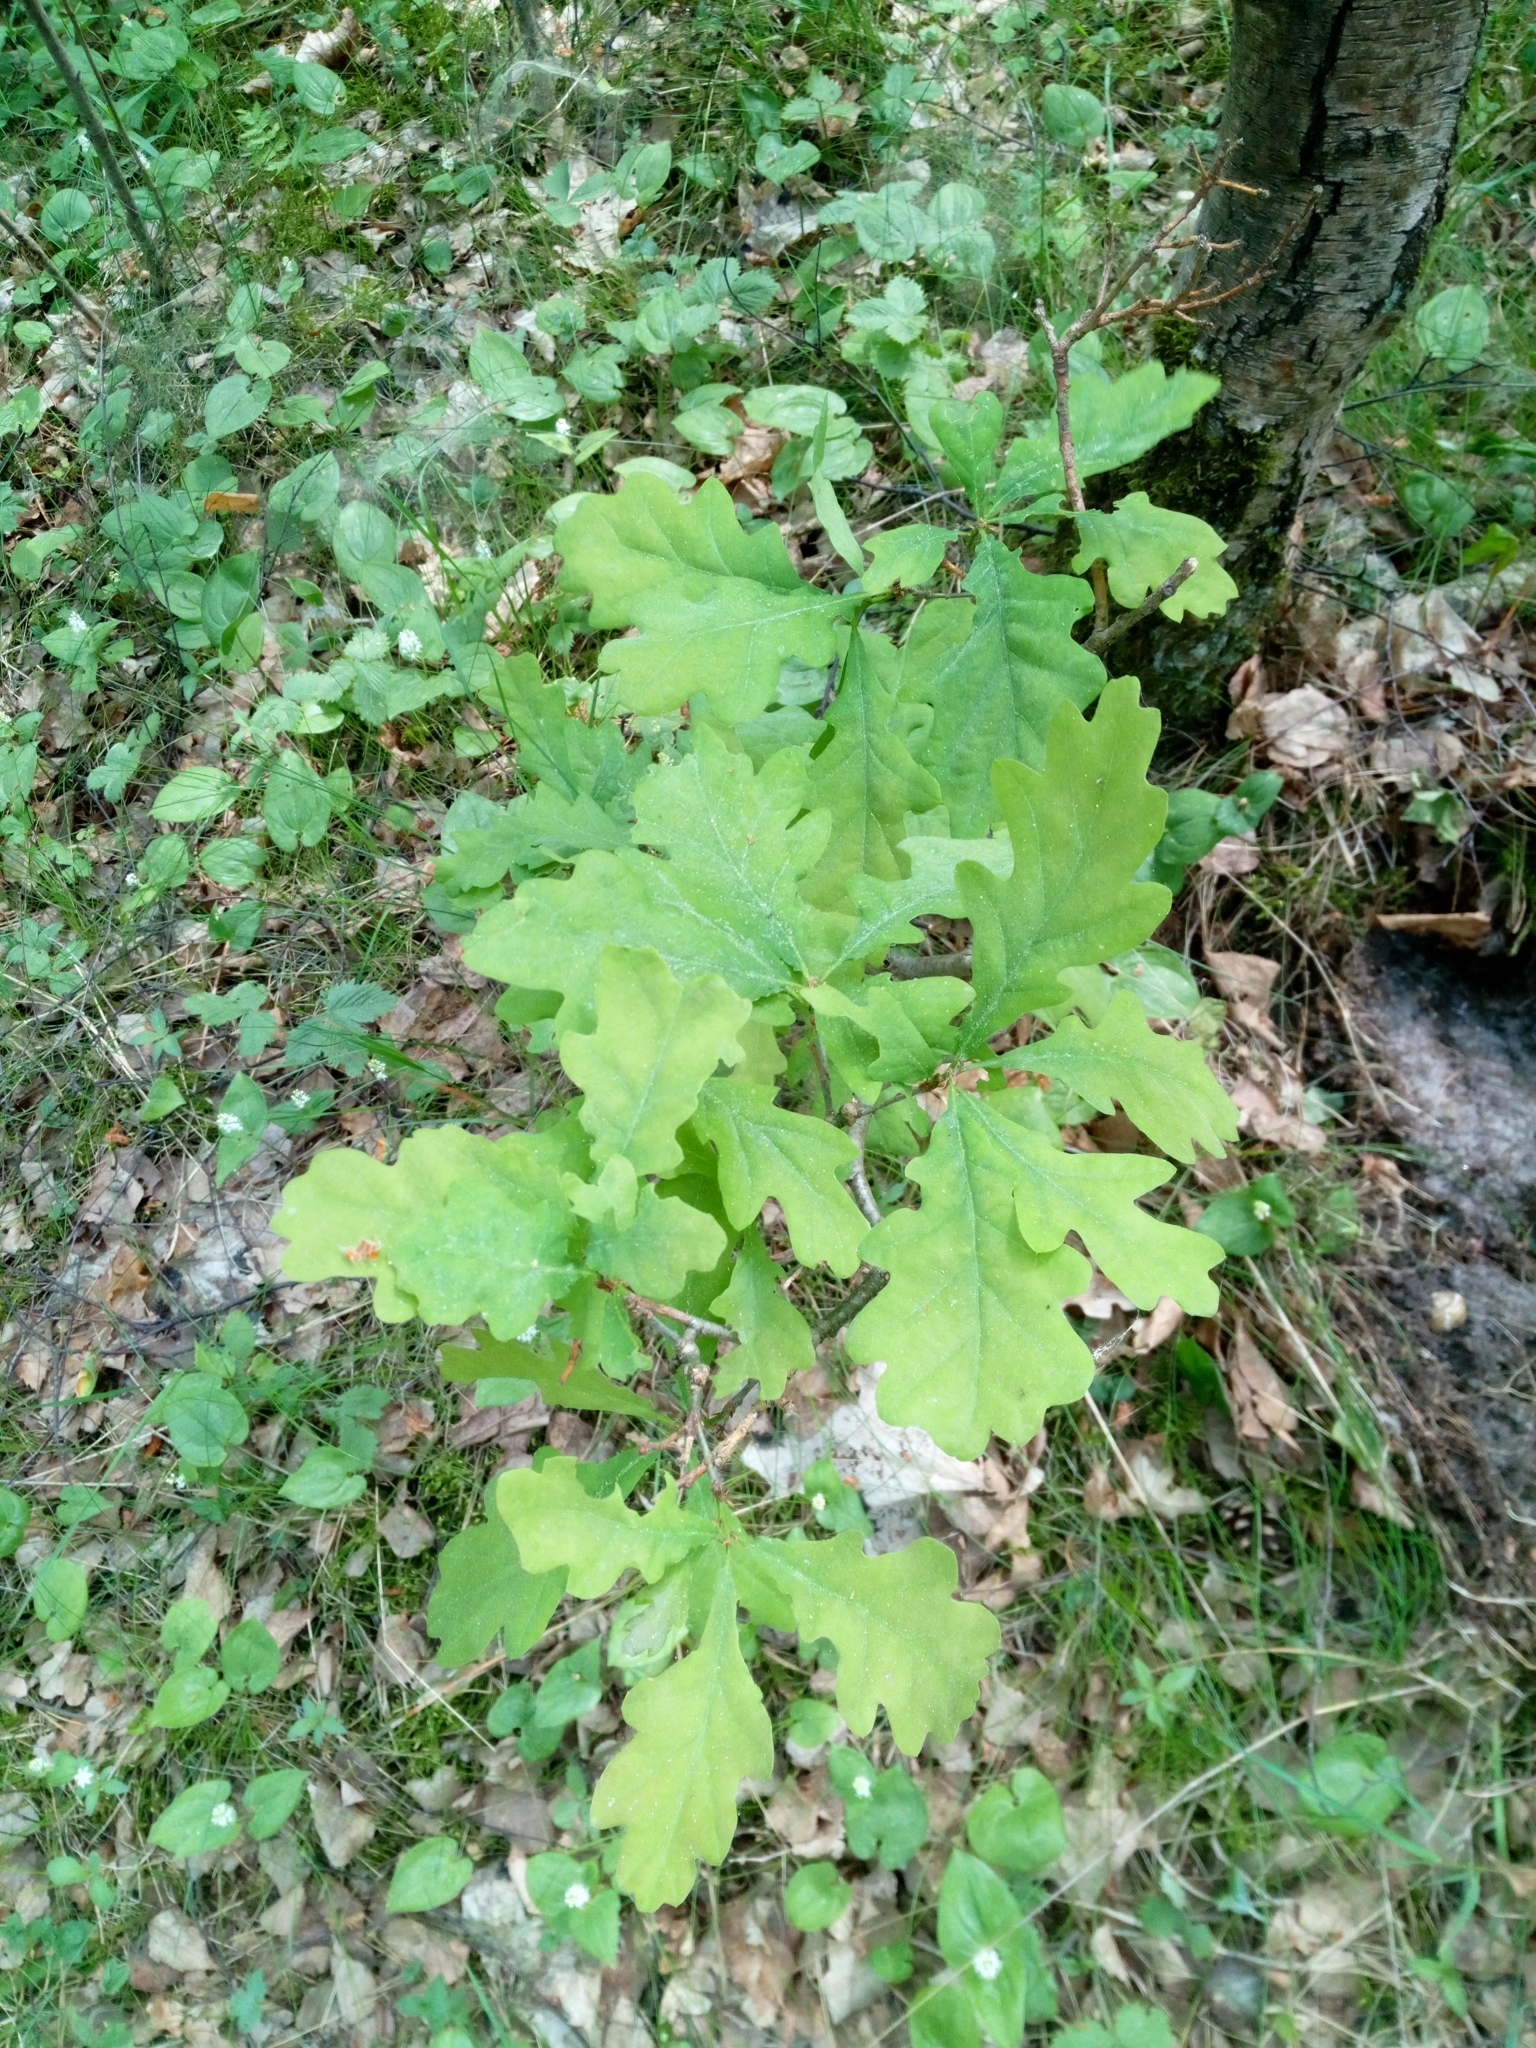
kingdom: Plantae
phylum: Tracheophyta
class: Magnoliopsida
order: Fagales
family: Fagaceae
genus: Quercus
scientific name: Quercus robur
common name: Pedunculate oak
